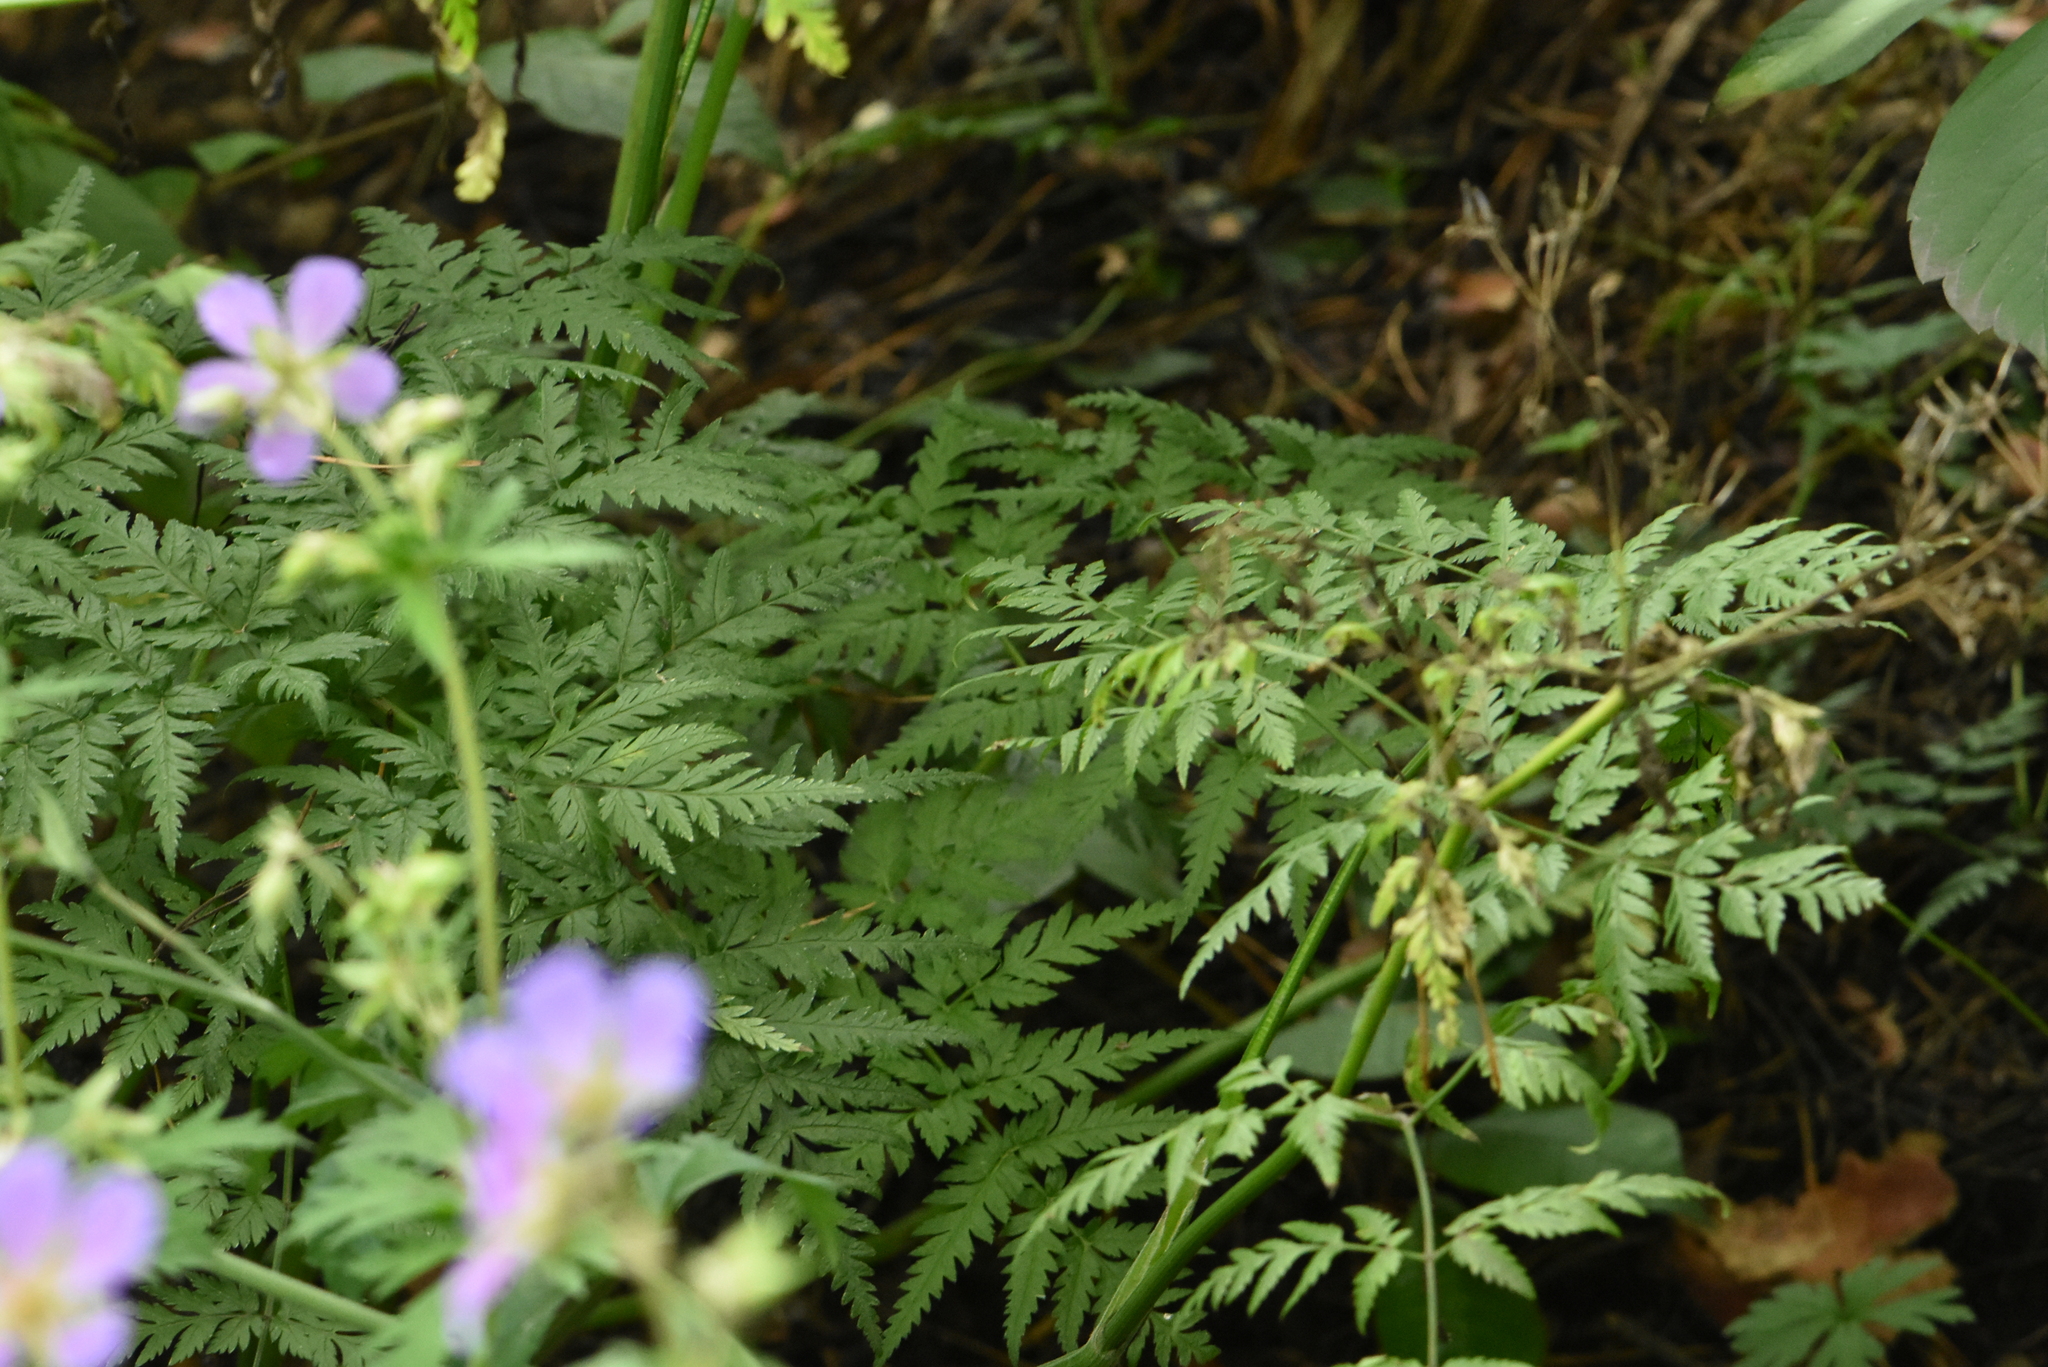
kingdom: Plantae
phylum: Tracheophyta
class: Magnoliopsida
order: Apiales
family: Apiaceae
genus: Anthriscus
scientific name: Anthriscus sylvestris
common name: Cow parsley
